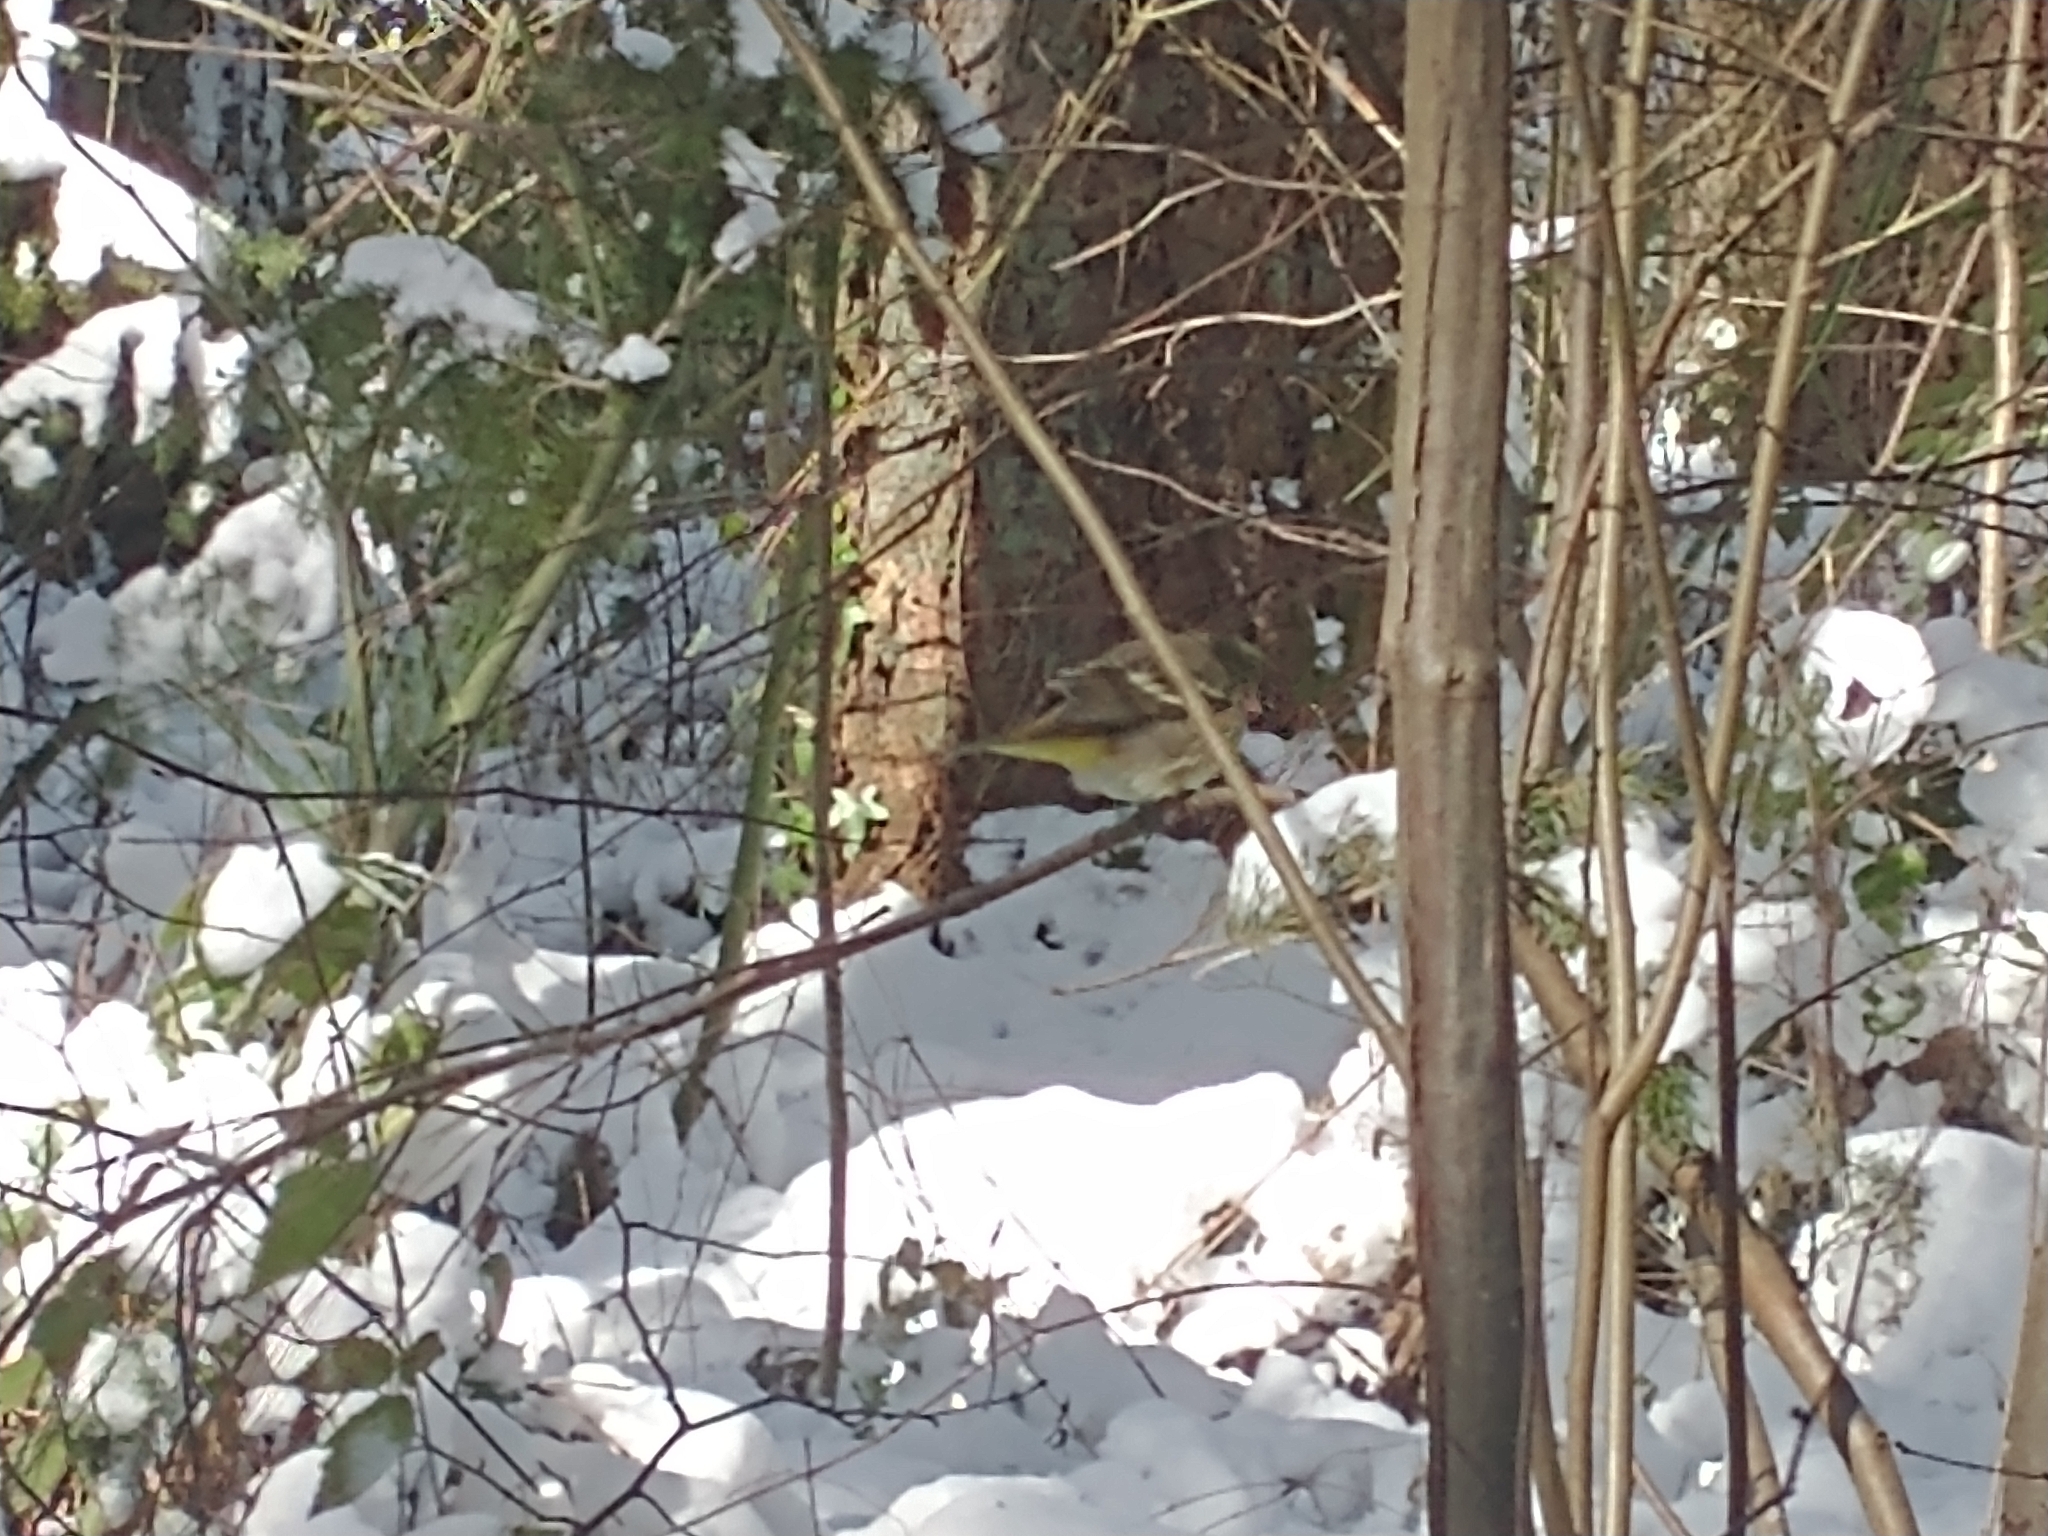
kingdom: Animalia
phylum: Chordata
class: Aves
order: Passeriformes
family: Cardinalidae
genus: Piranga
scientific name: Piranga ludoviciana
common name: Western tanager
